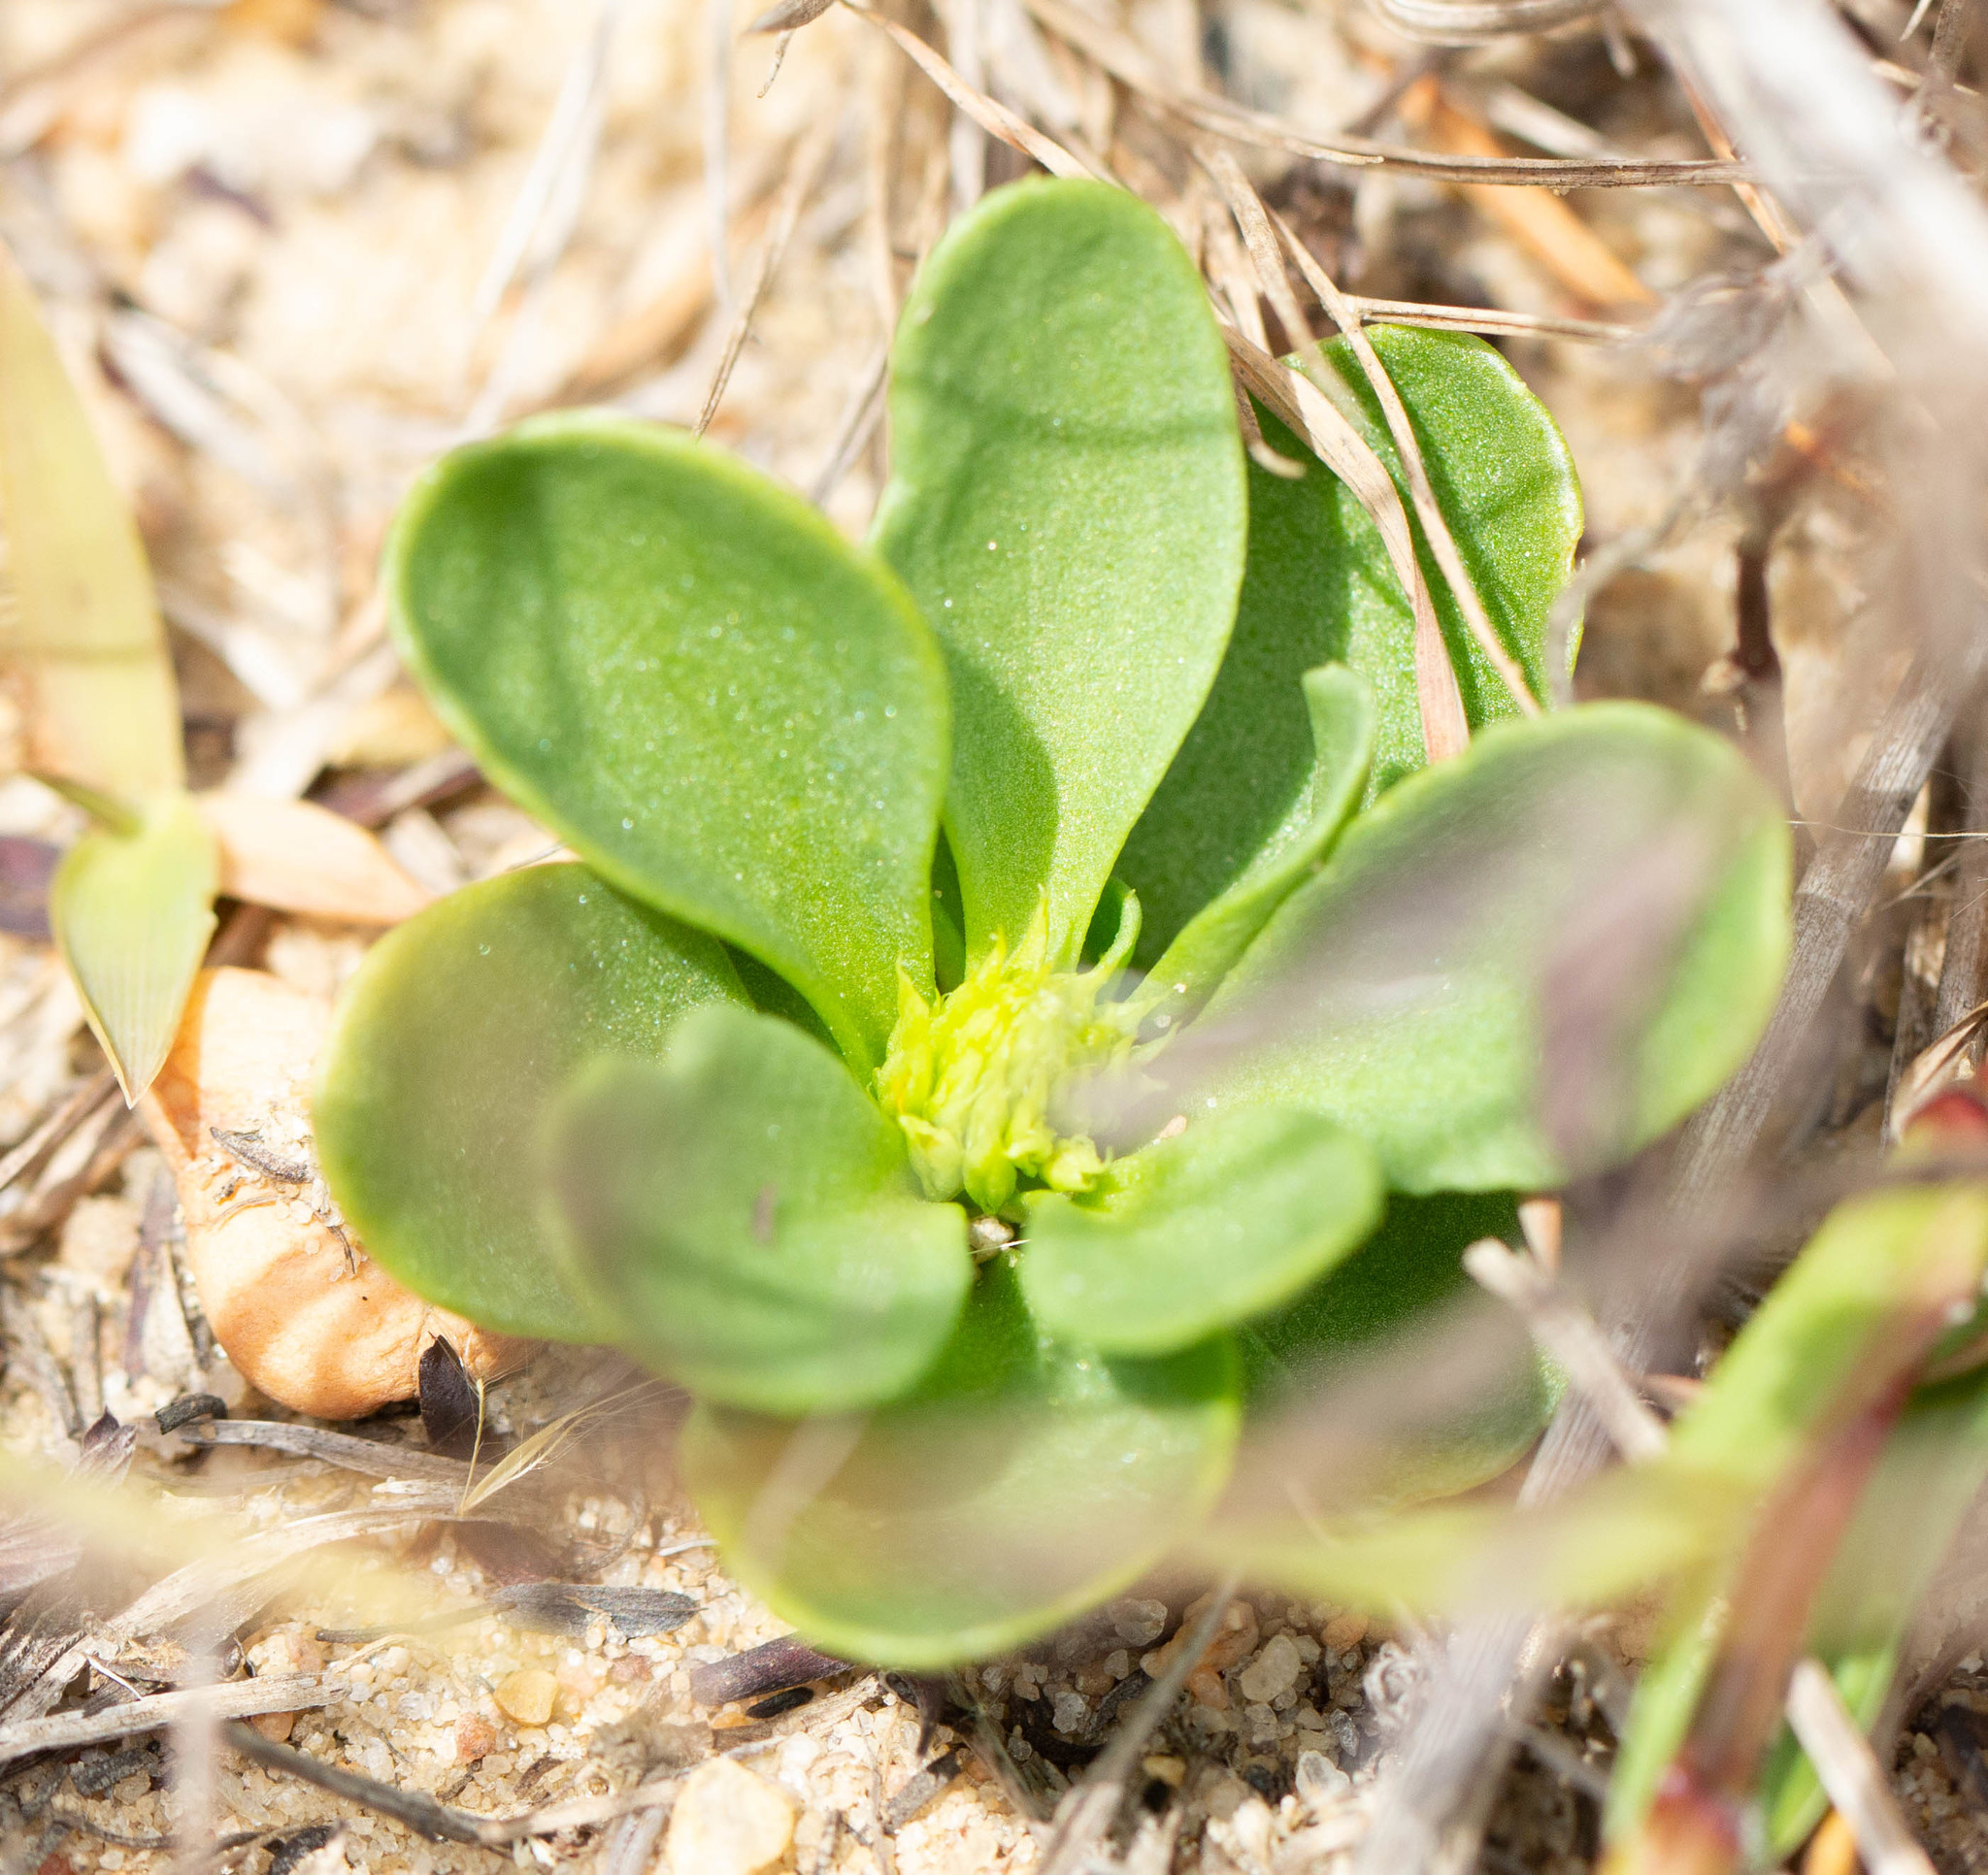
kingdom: Plantae
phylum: Tracheophyta
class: Magnoliopsida
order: Fabales
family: Polygalaceae
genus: Polygala
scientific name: Polygala nana
